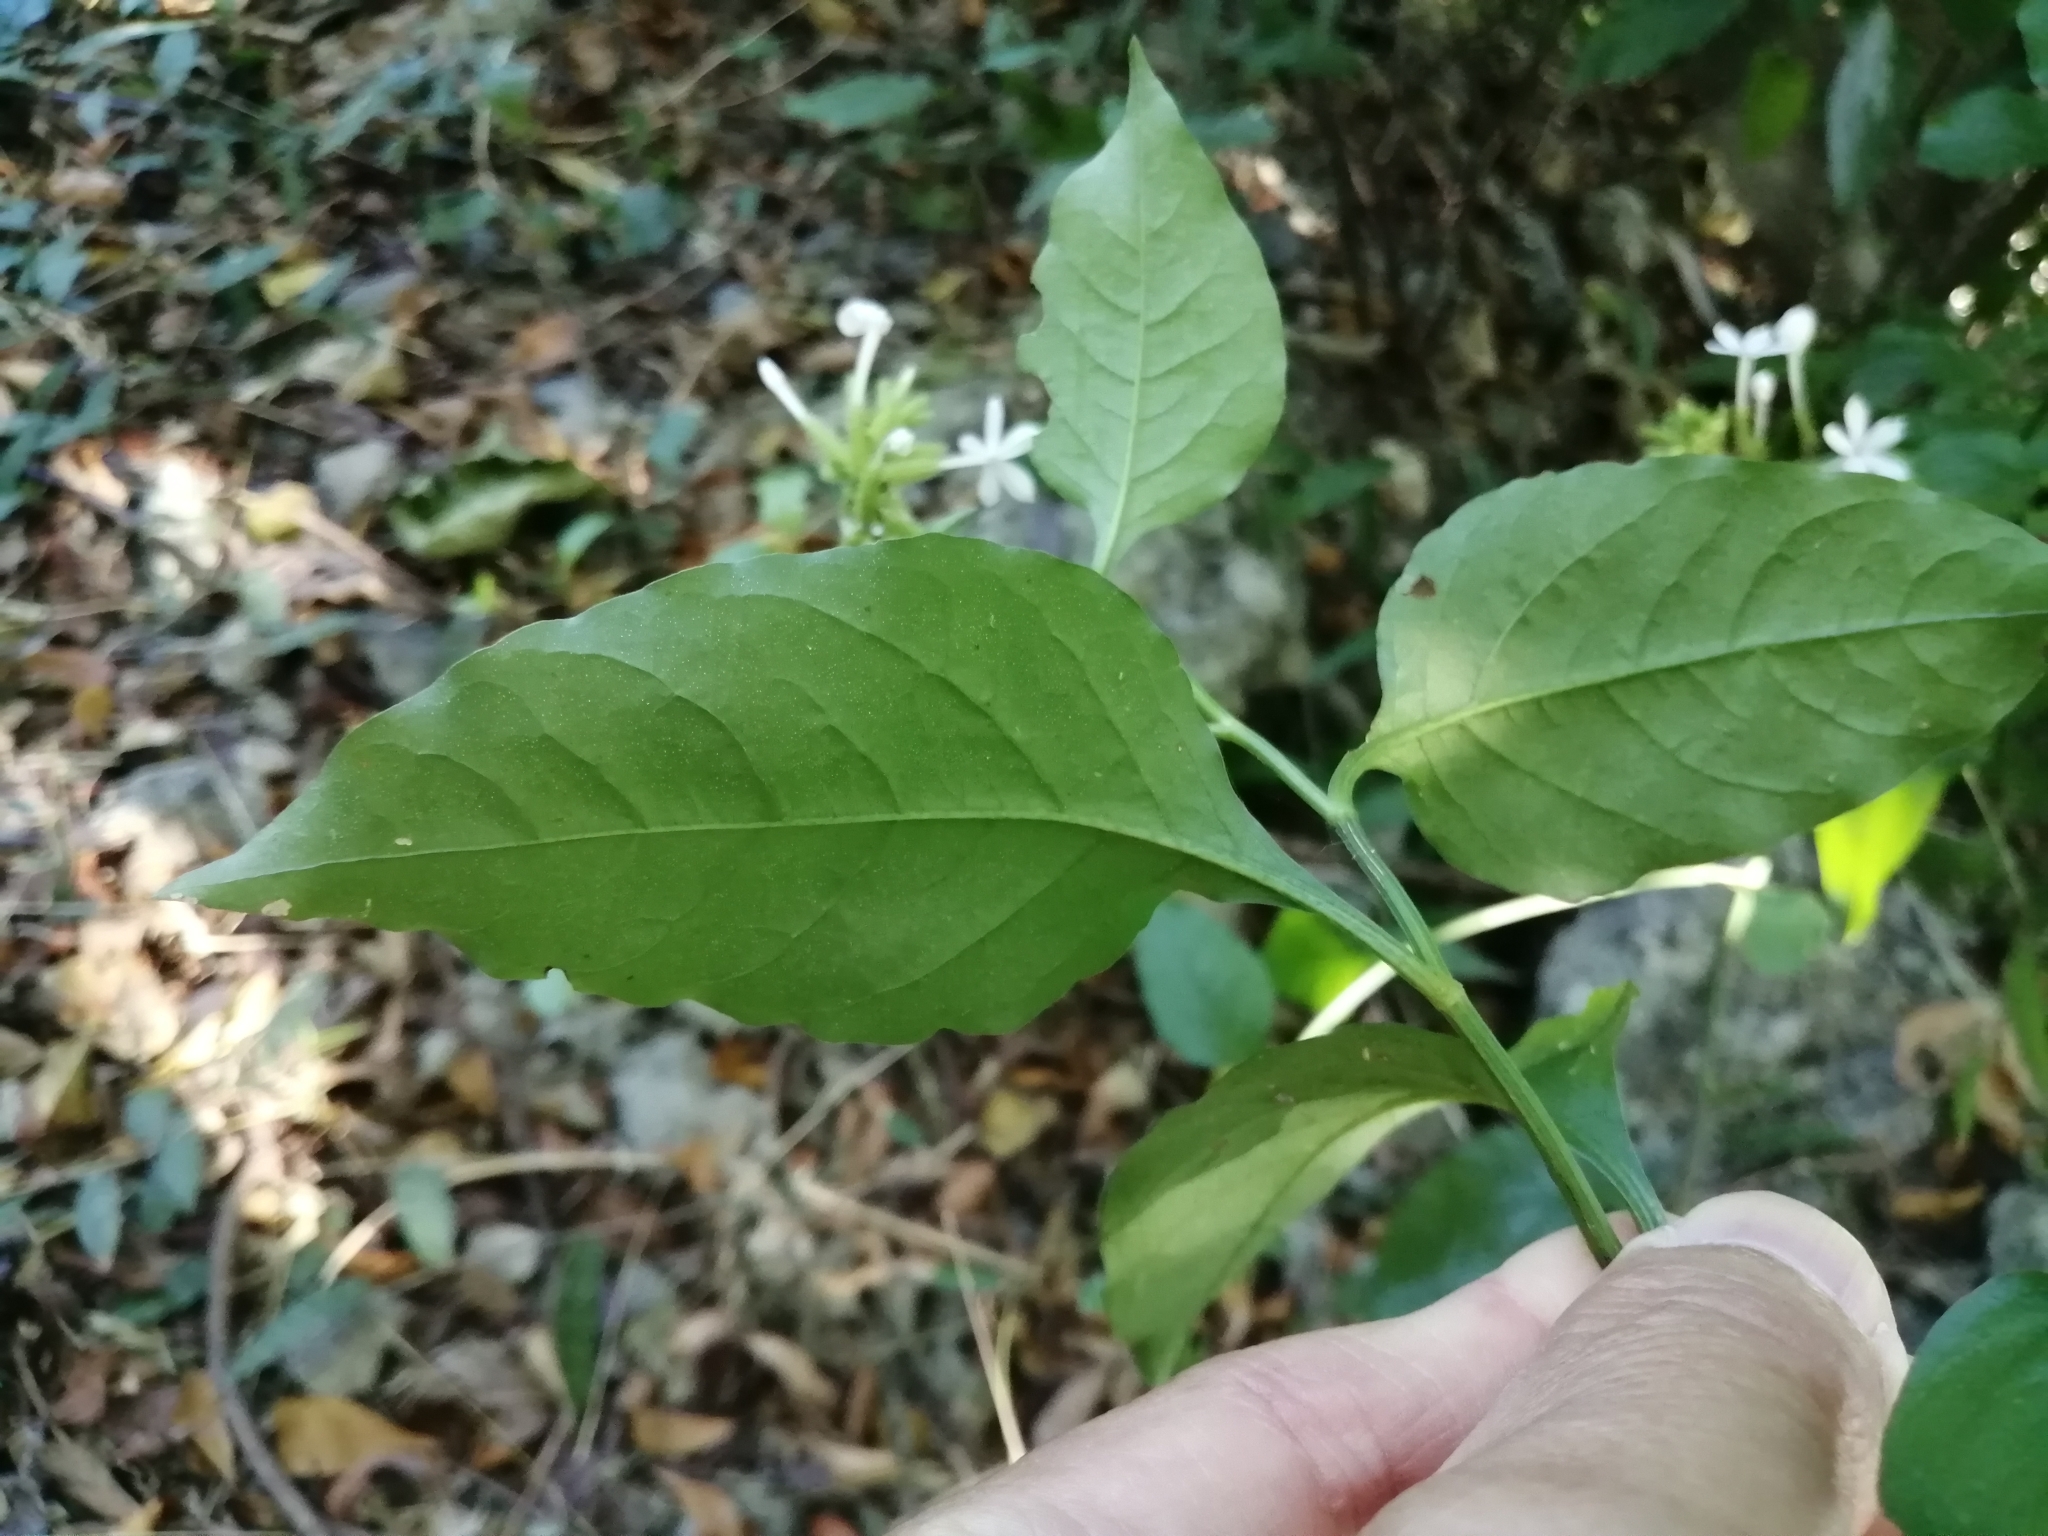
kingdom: Plantae
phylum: Tracheophyta
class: Magnoliopsida
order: Caryophyllales
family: Plumbaginaceae
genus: Plumbago
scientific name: Plumbago zeylanica
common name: Doctorbush
